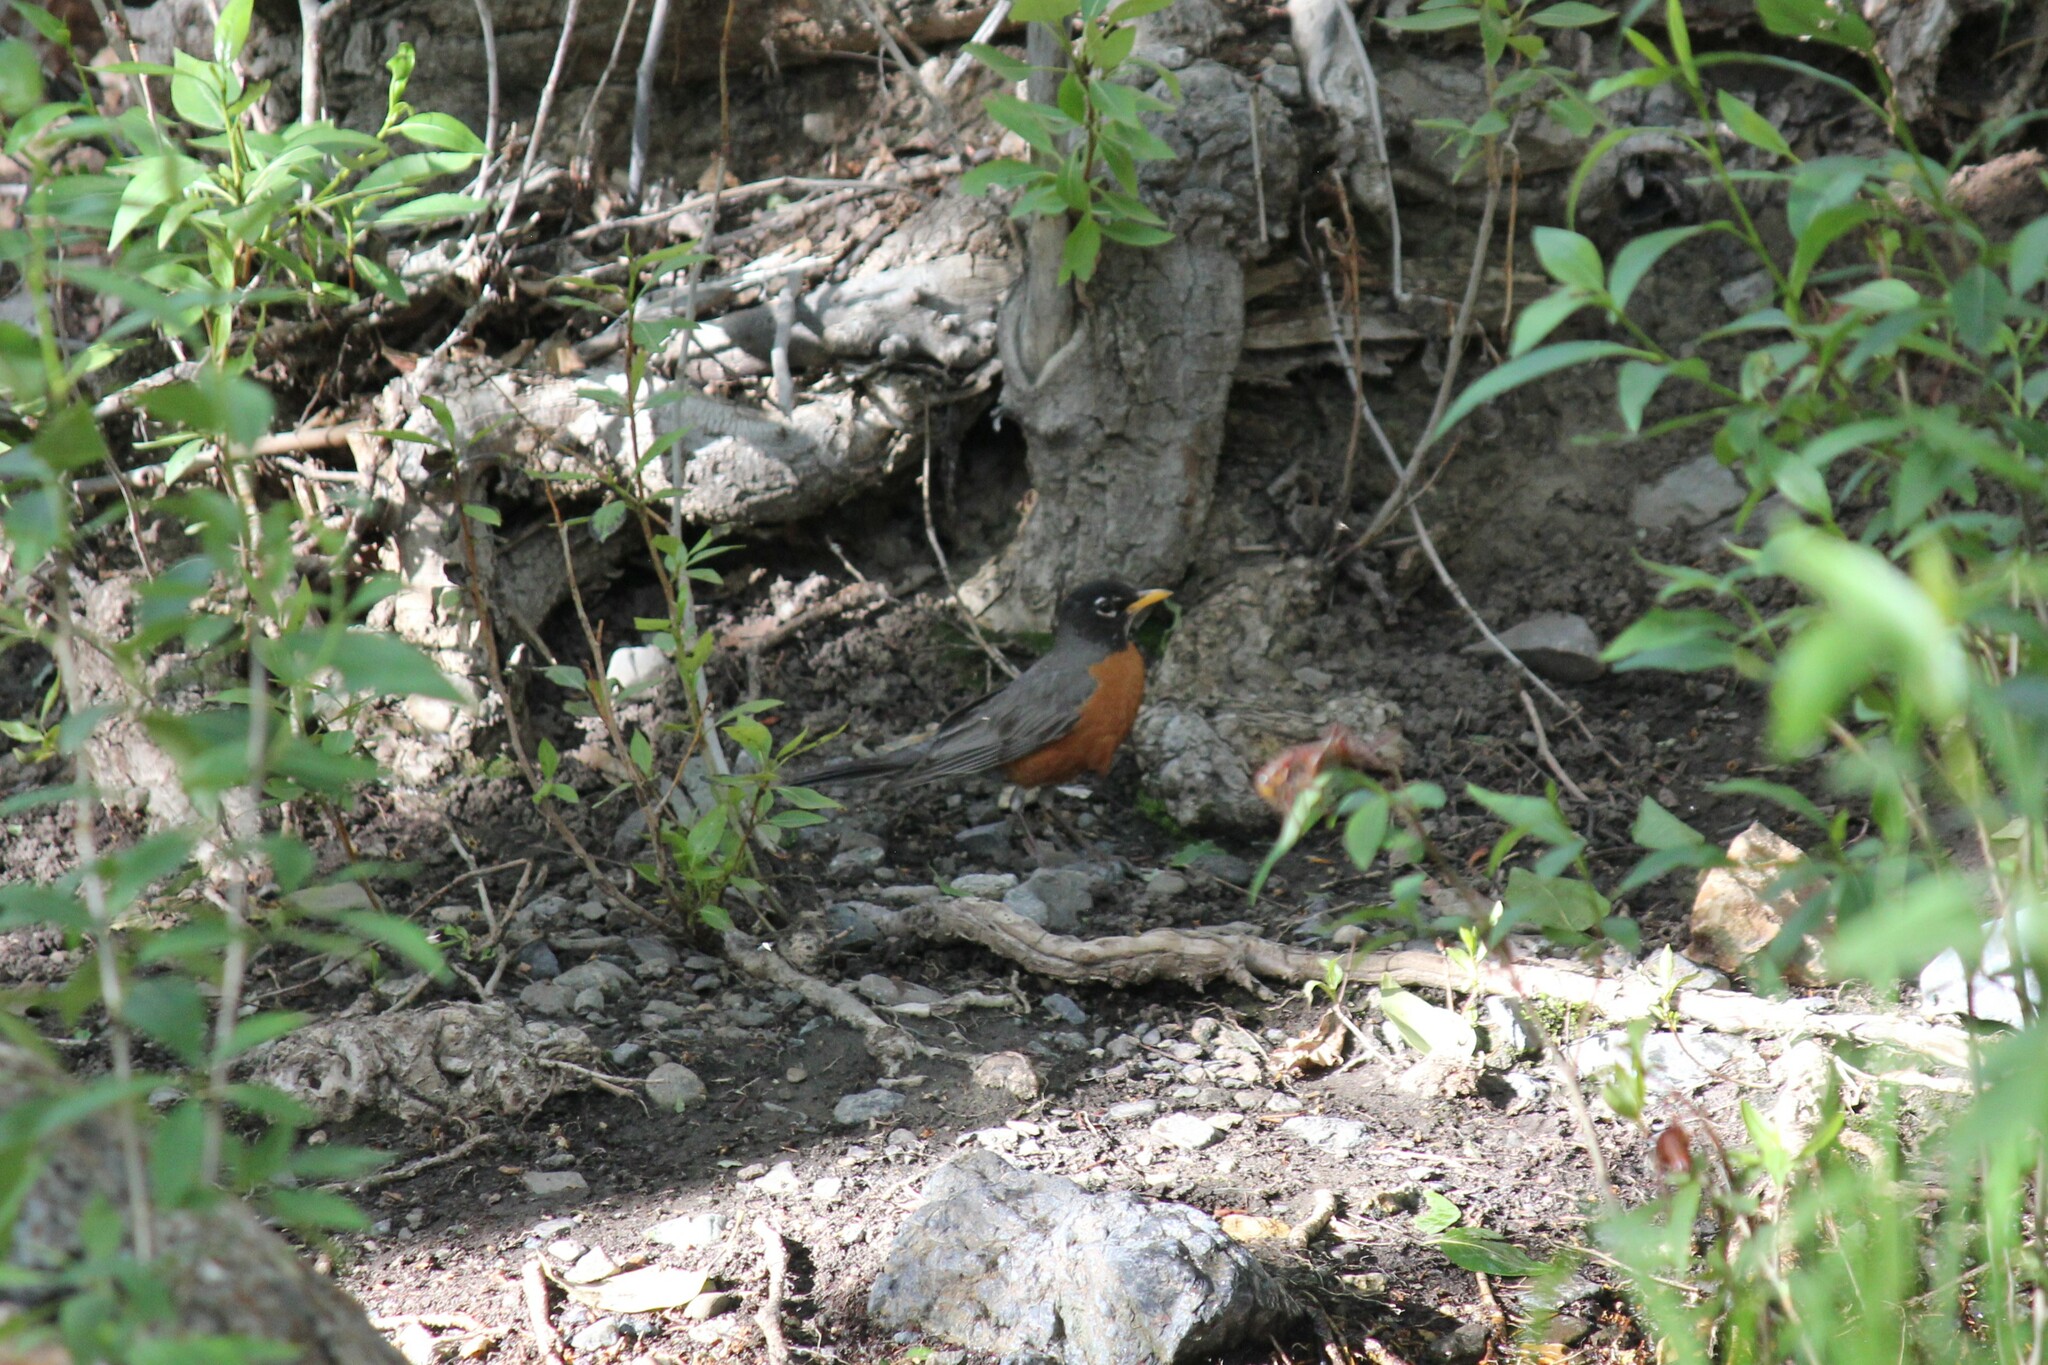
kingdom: Animalia
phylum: Chordata
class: Aves
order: Passeriformes
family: Turdidae
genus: Turdus
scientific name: Turdus migratorius
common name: American robin
